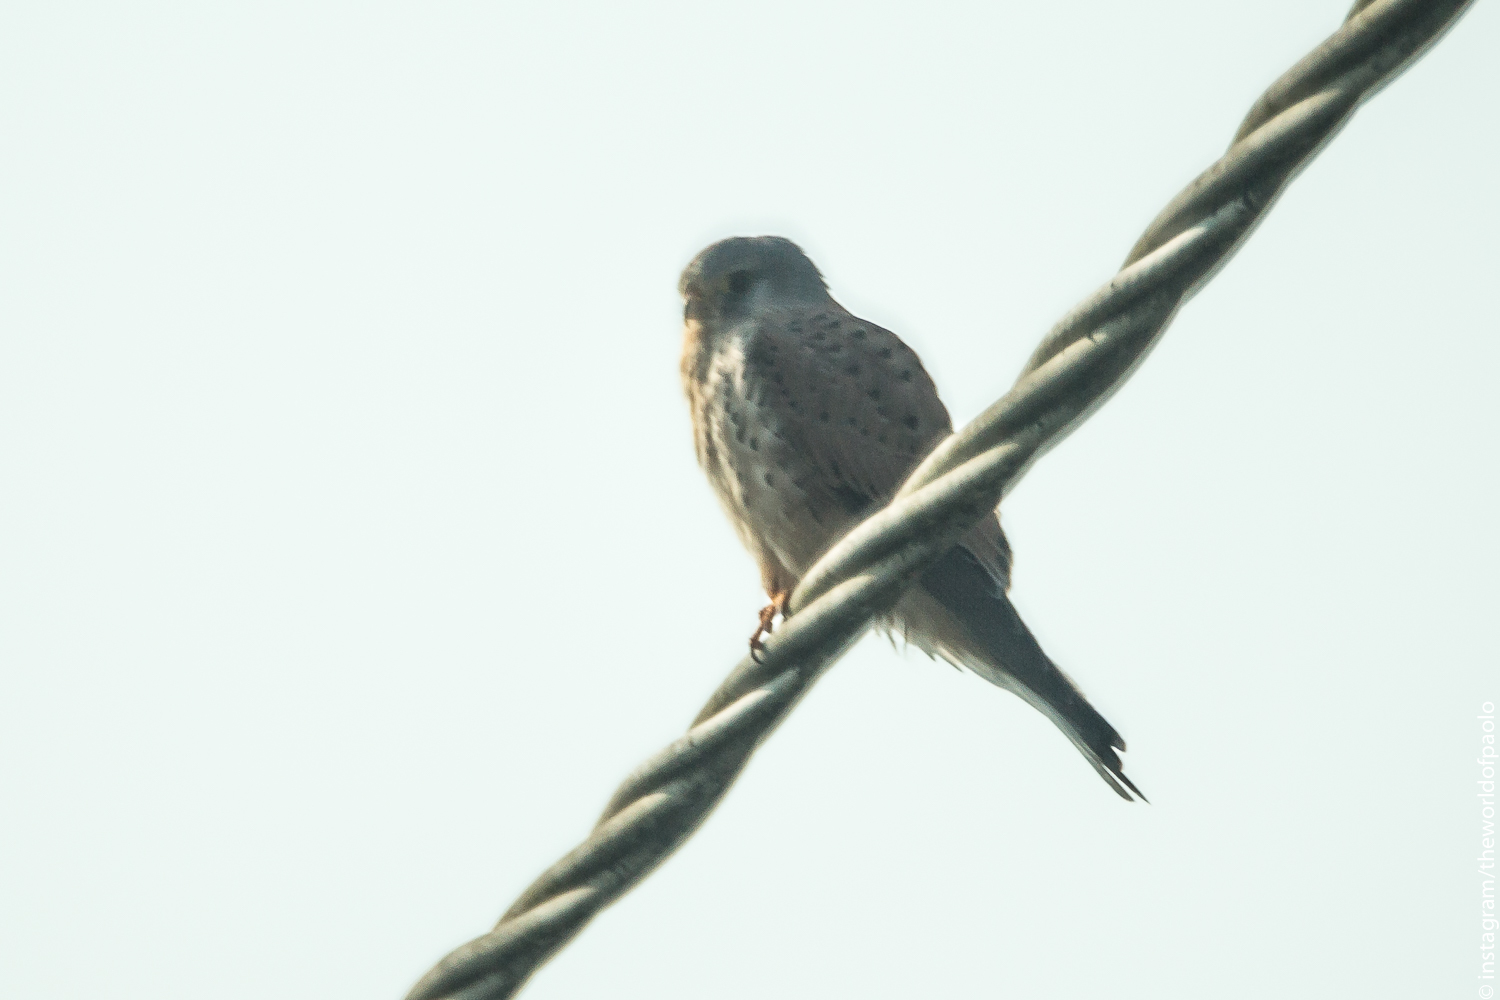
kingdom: Animalia
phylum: Chordata
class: Aves
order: Falconiformes
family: Falconidae
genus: Falco
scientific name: Falco tinnunculus
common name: Common kestrel
